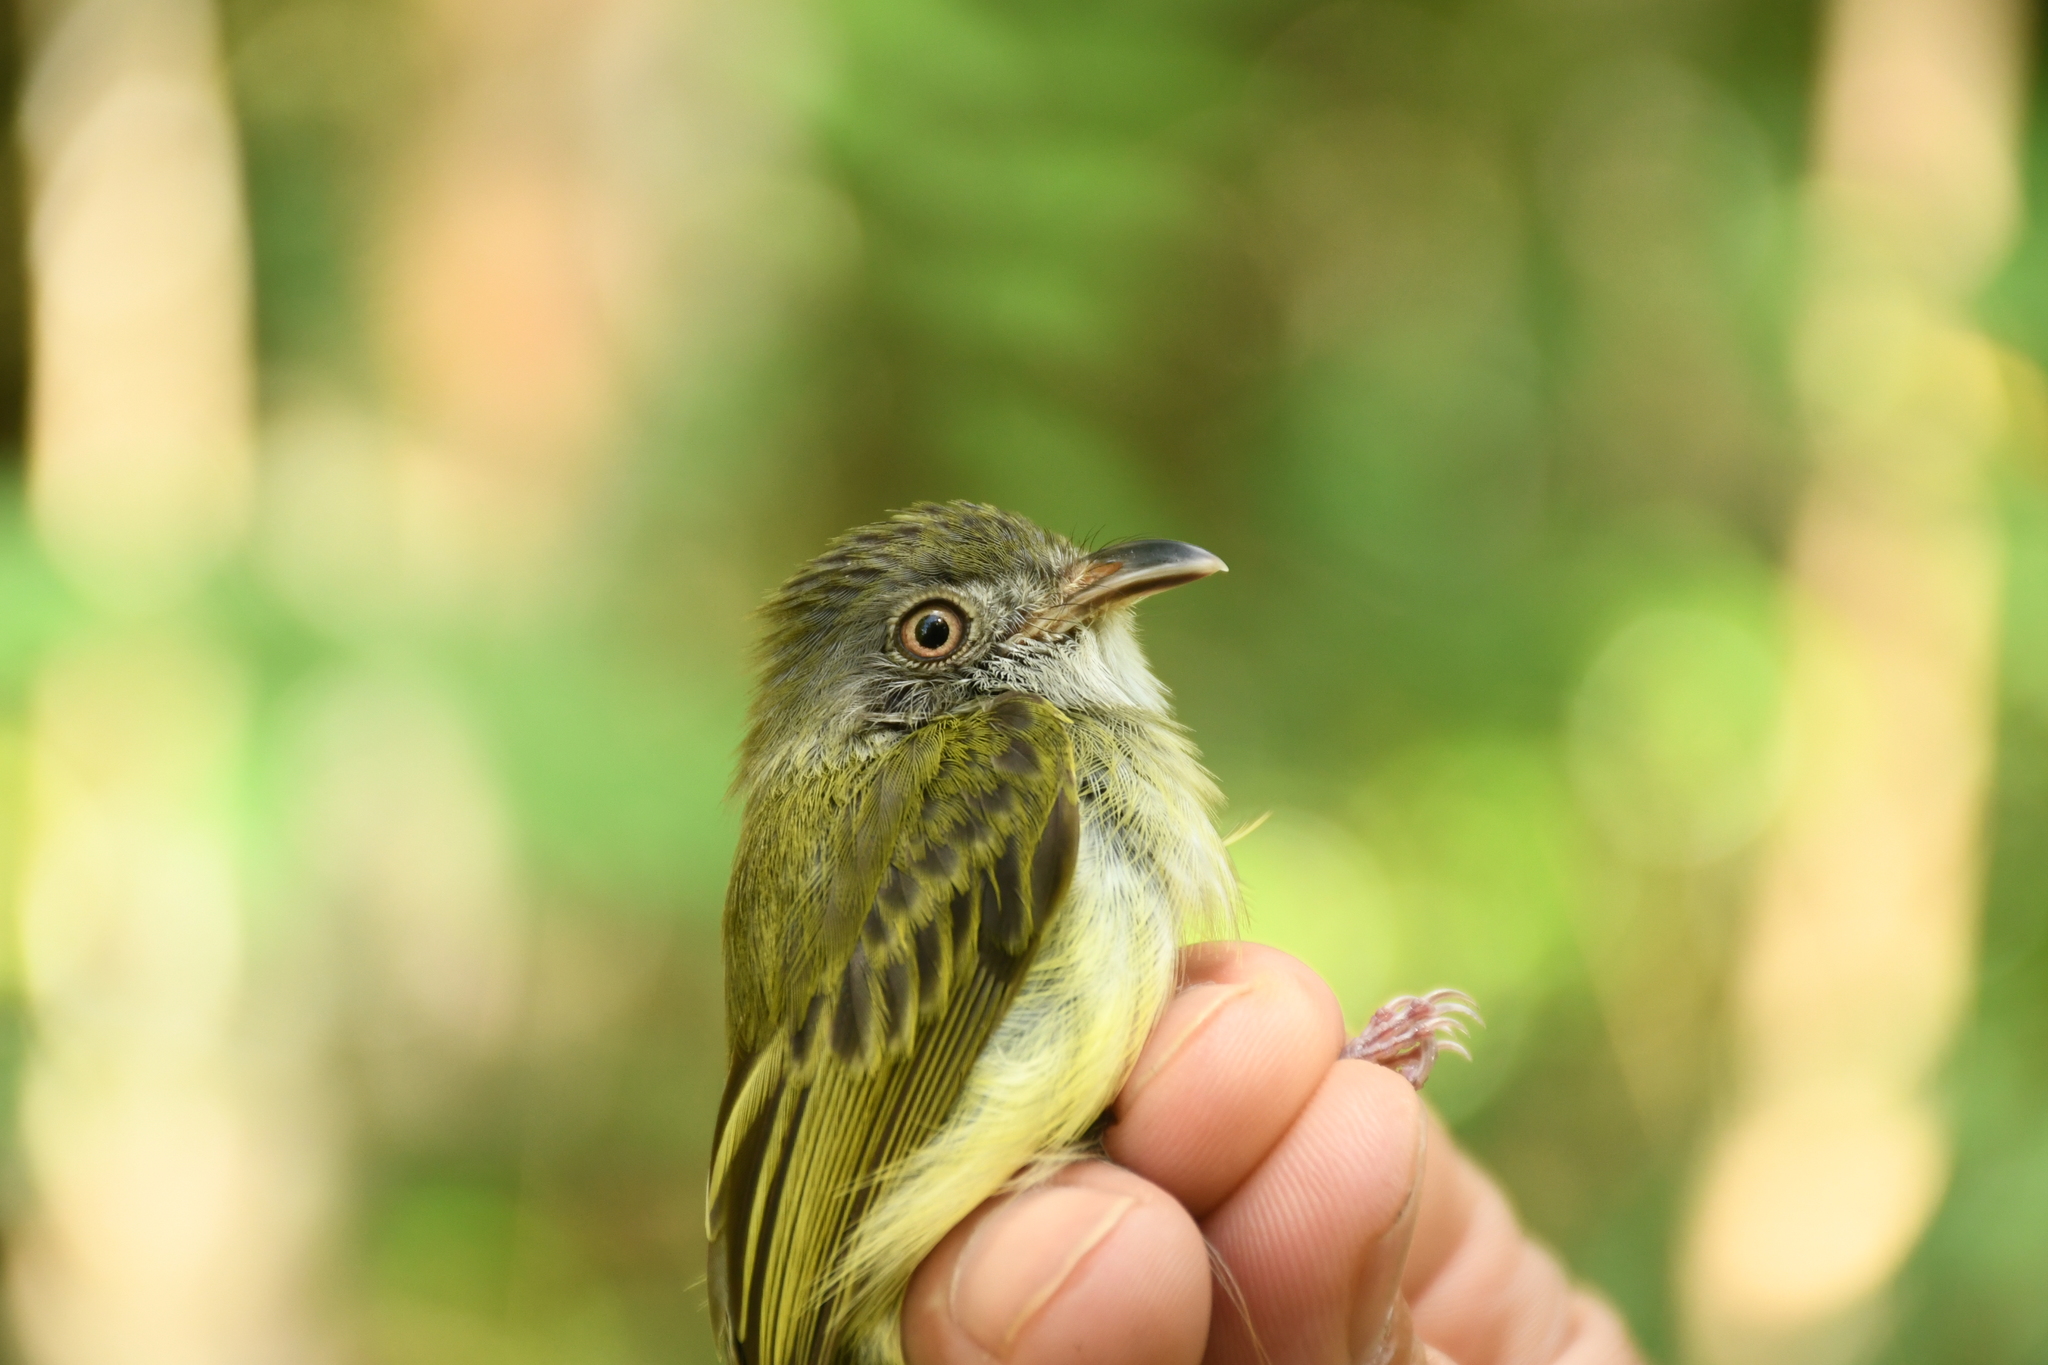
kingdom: Animalia
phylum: Chordata
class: Aves
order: Passeriformes
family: Tyrannidae
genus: Oncostoma
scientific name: Oncostoma cinereigulare
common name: Northern bentbill
